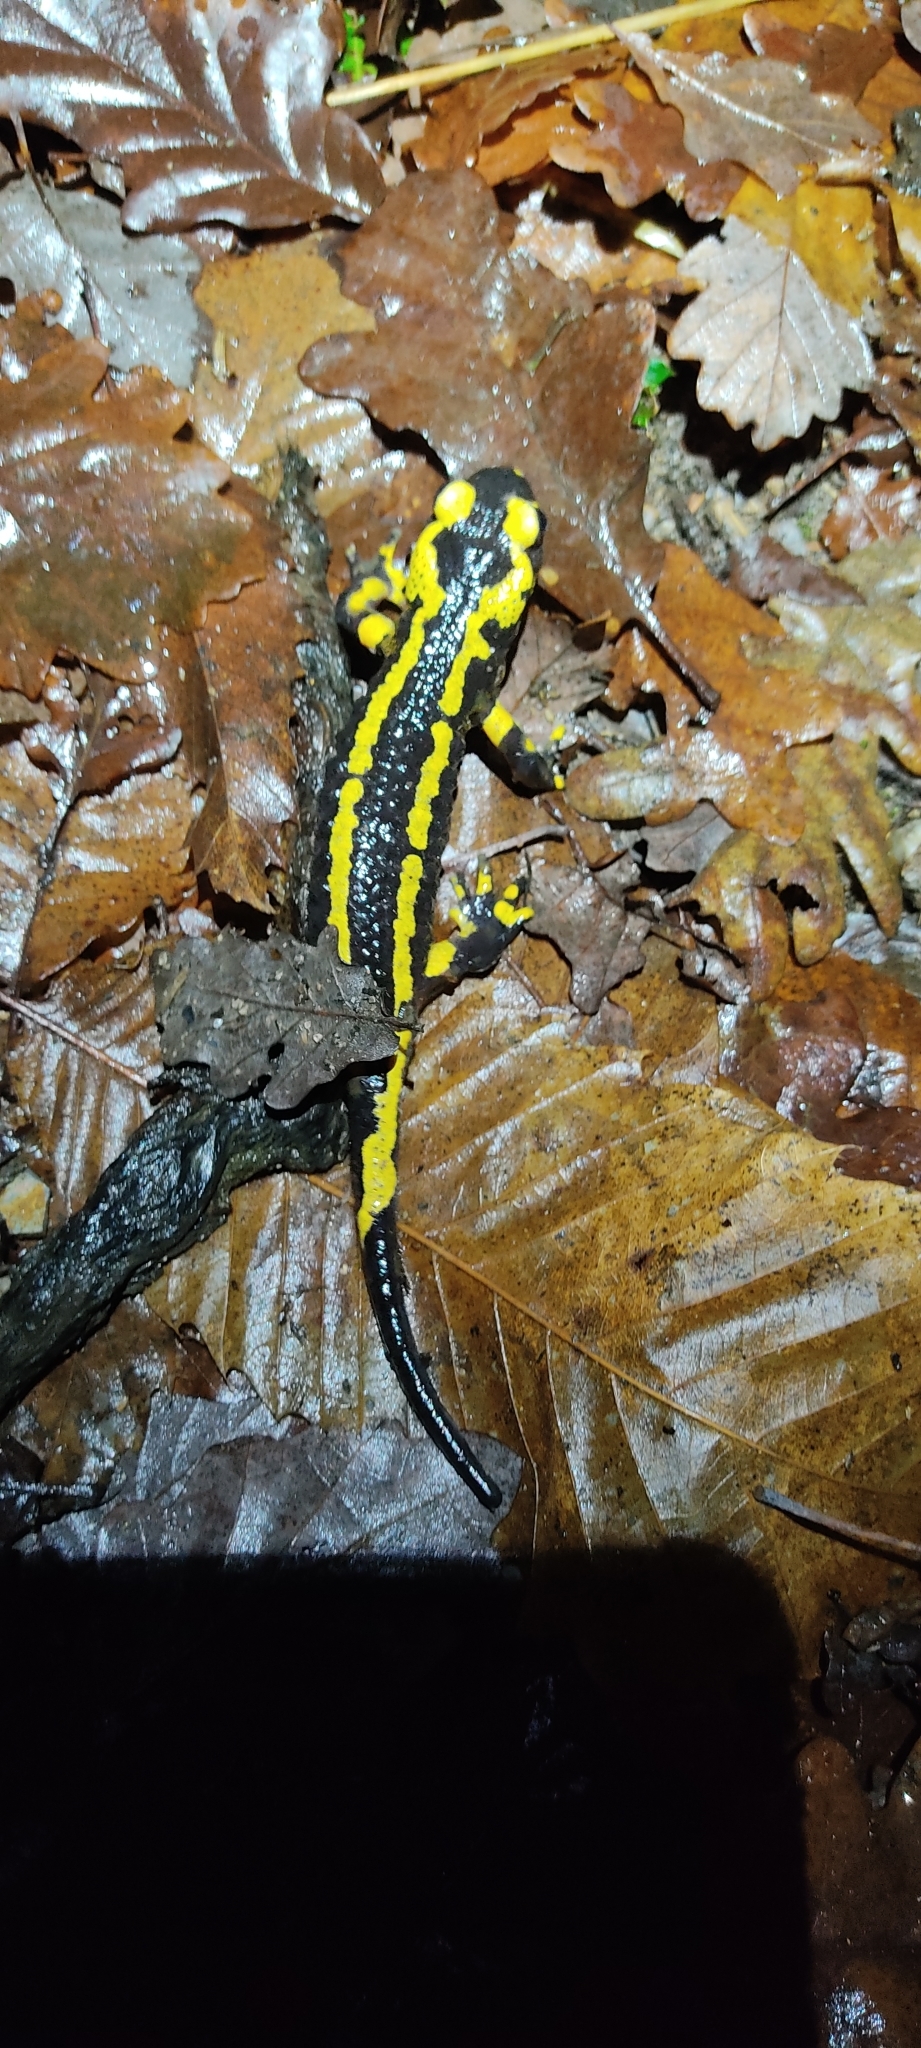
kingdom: Animalia
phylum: Chordata
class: Amphibia
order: Caudata
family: Salamandridae
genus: Salamandra
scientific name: Salamandra salamandra
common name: Fire salamander
